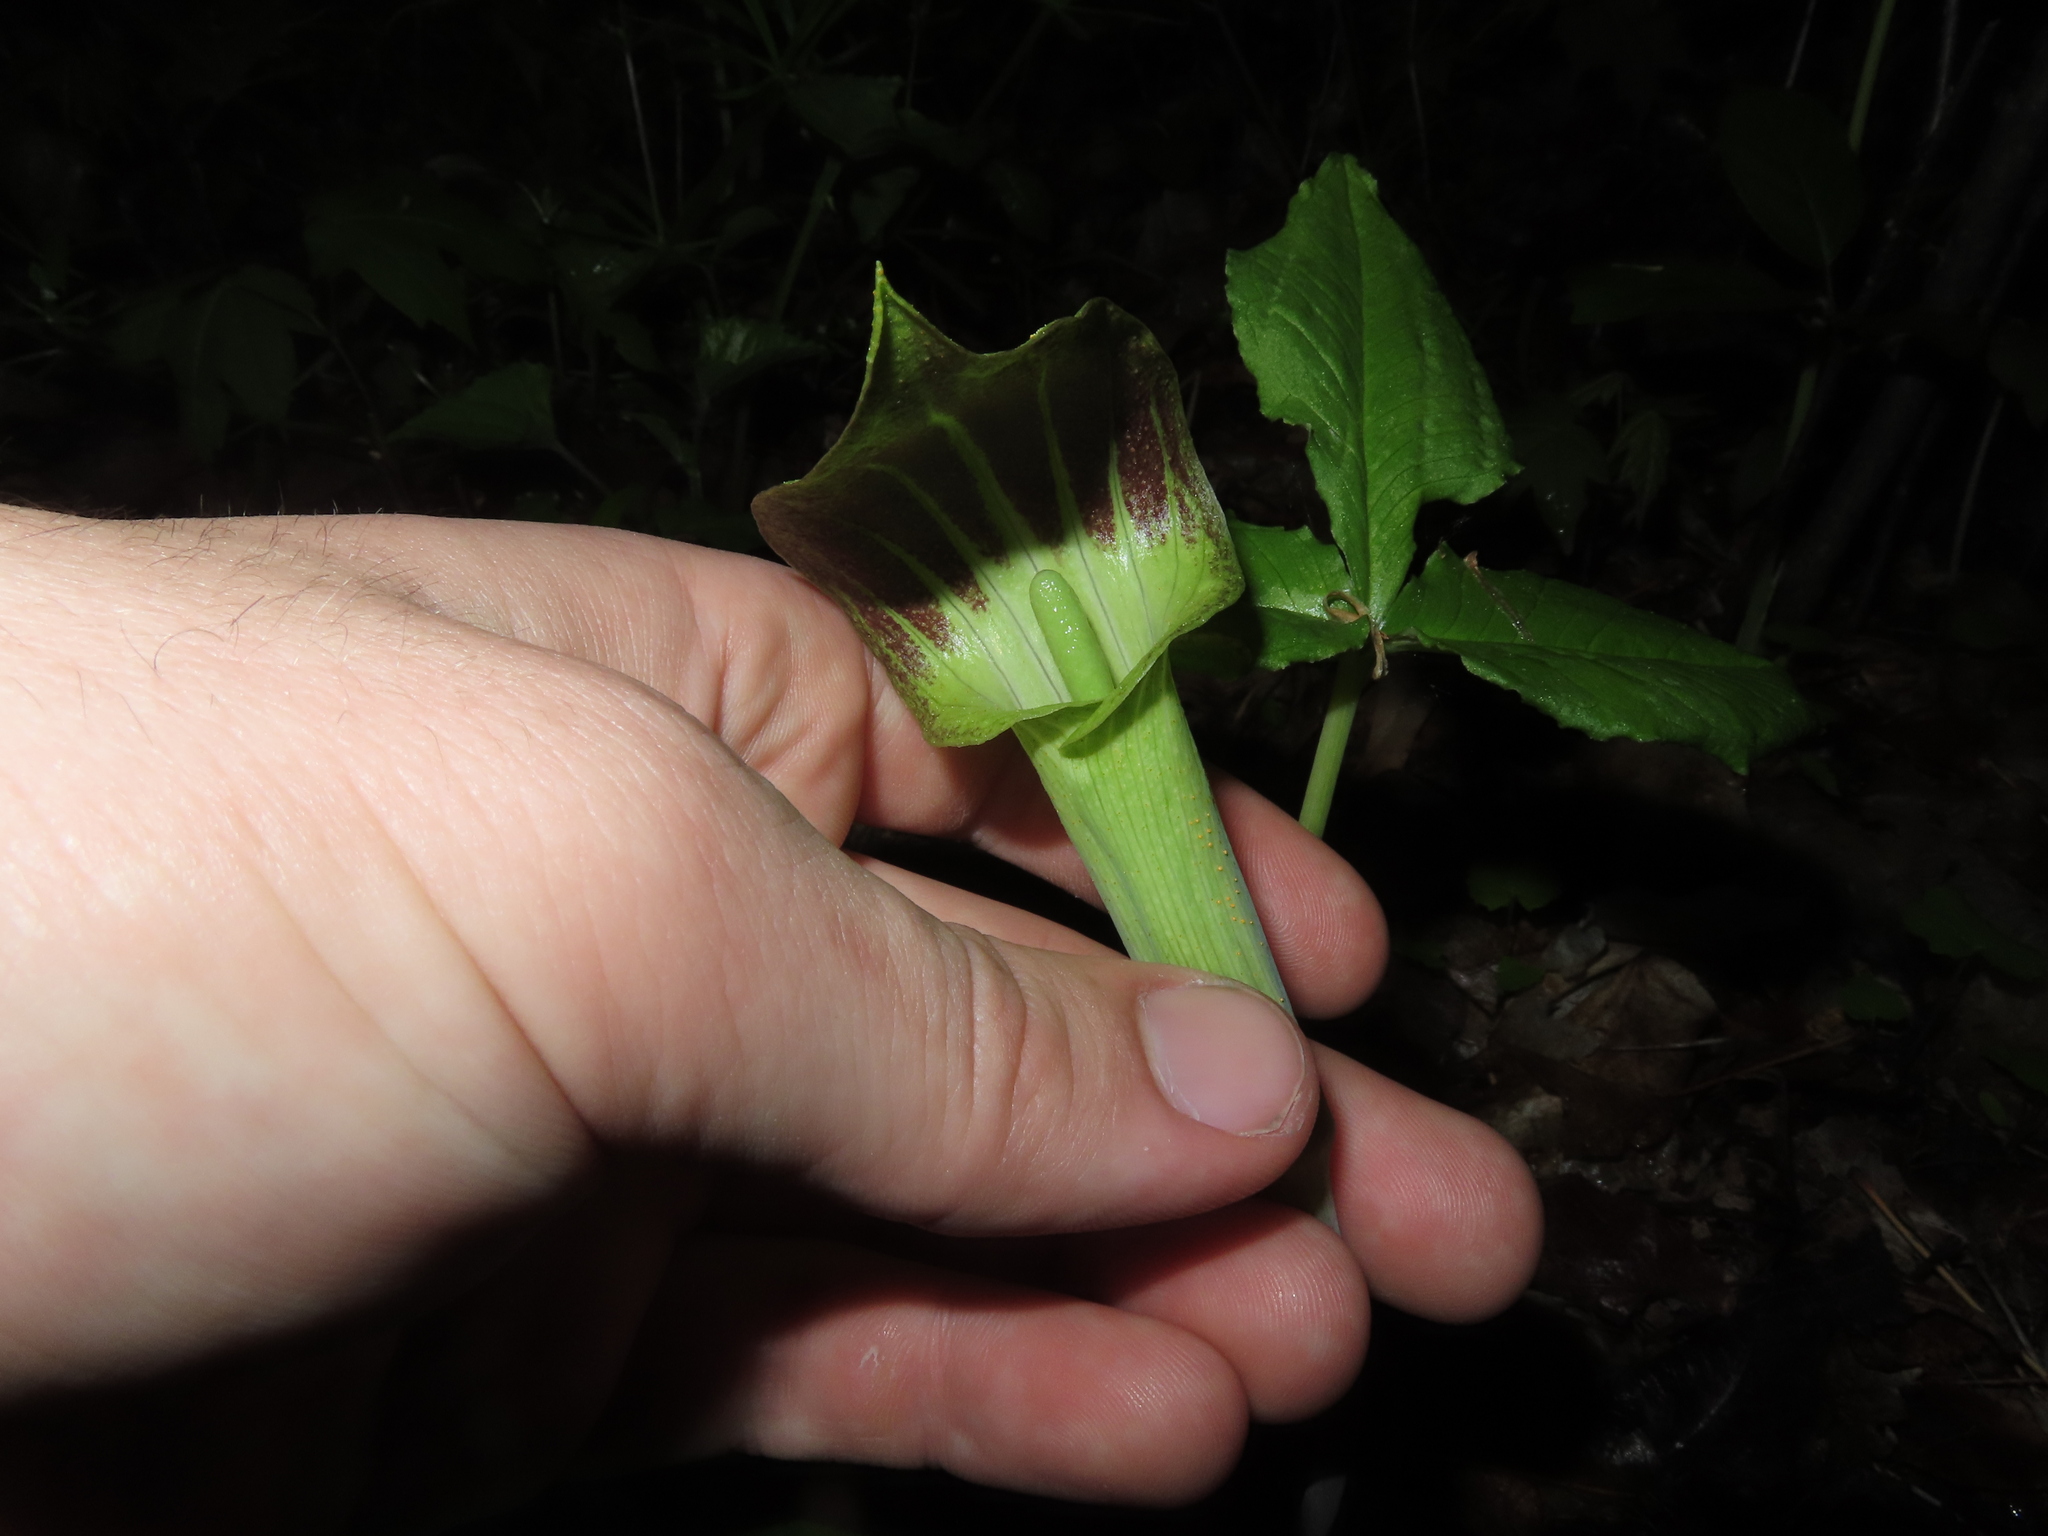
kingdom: Plantae
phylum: Tracheophyta
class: Liliopsida
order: Alismatales
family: Araceae
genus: Arisaema
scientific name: Arisaema triphyllum
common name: Jack-in-the-pulpit
